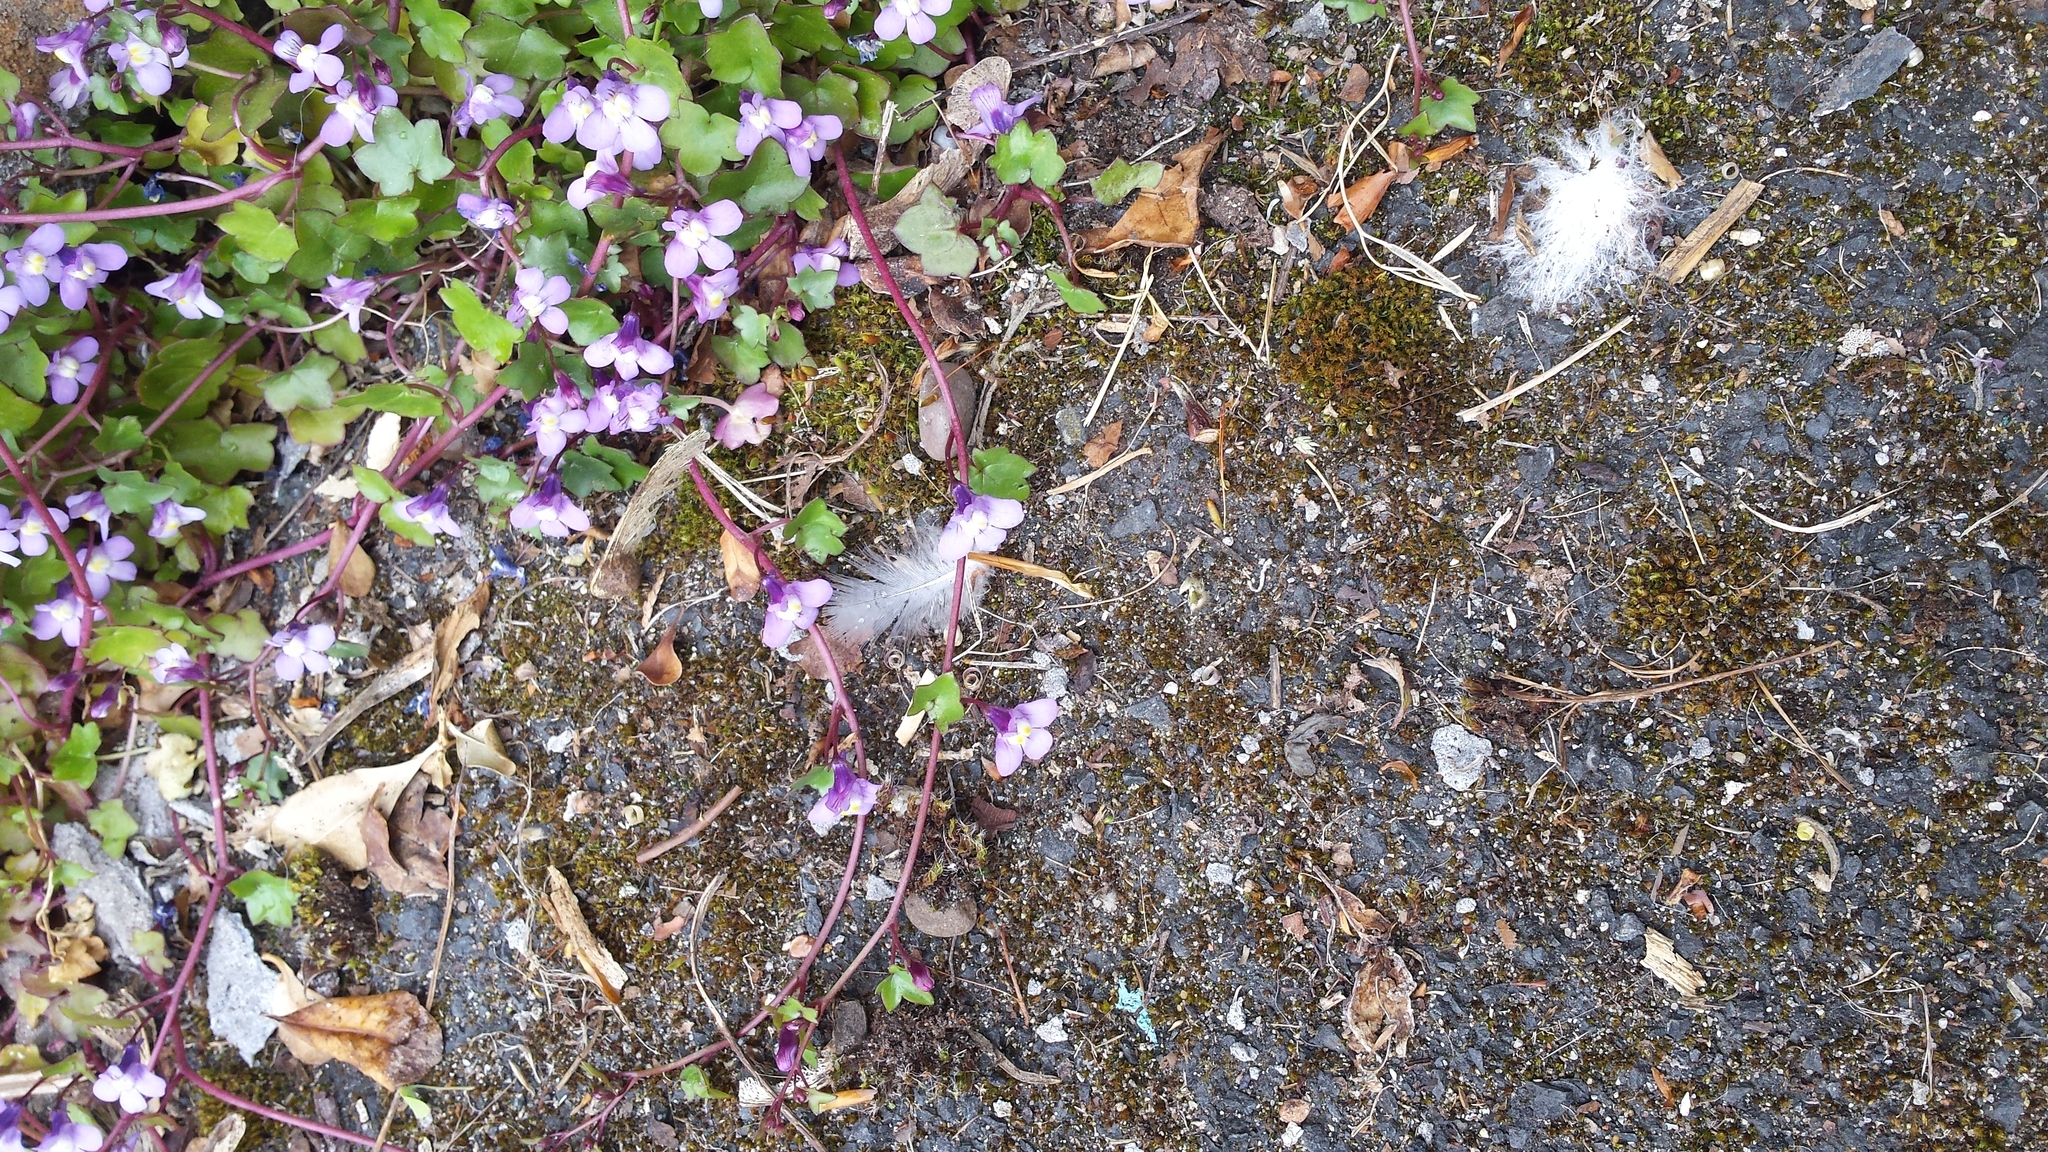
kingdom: Plantae
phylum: Tracheophyta
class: Magnoliopsida
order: Lamiales
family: Plantaginaceae
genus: Cymbalaria
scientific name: Cymbalaria muralis
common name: Ivy-leaved toadflax
